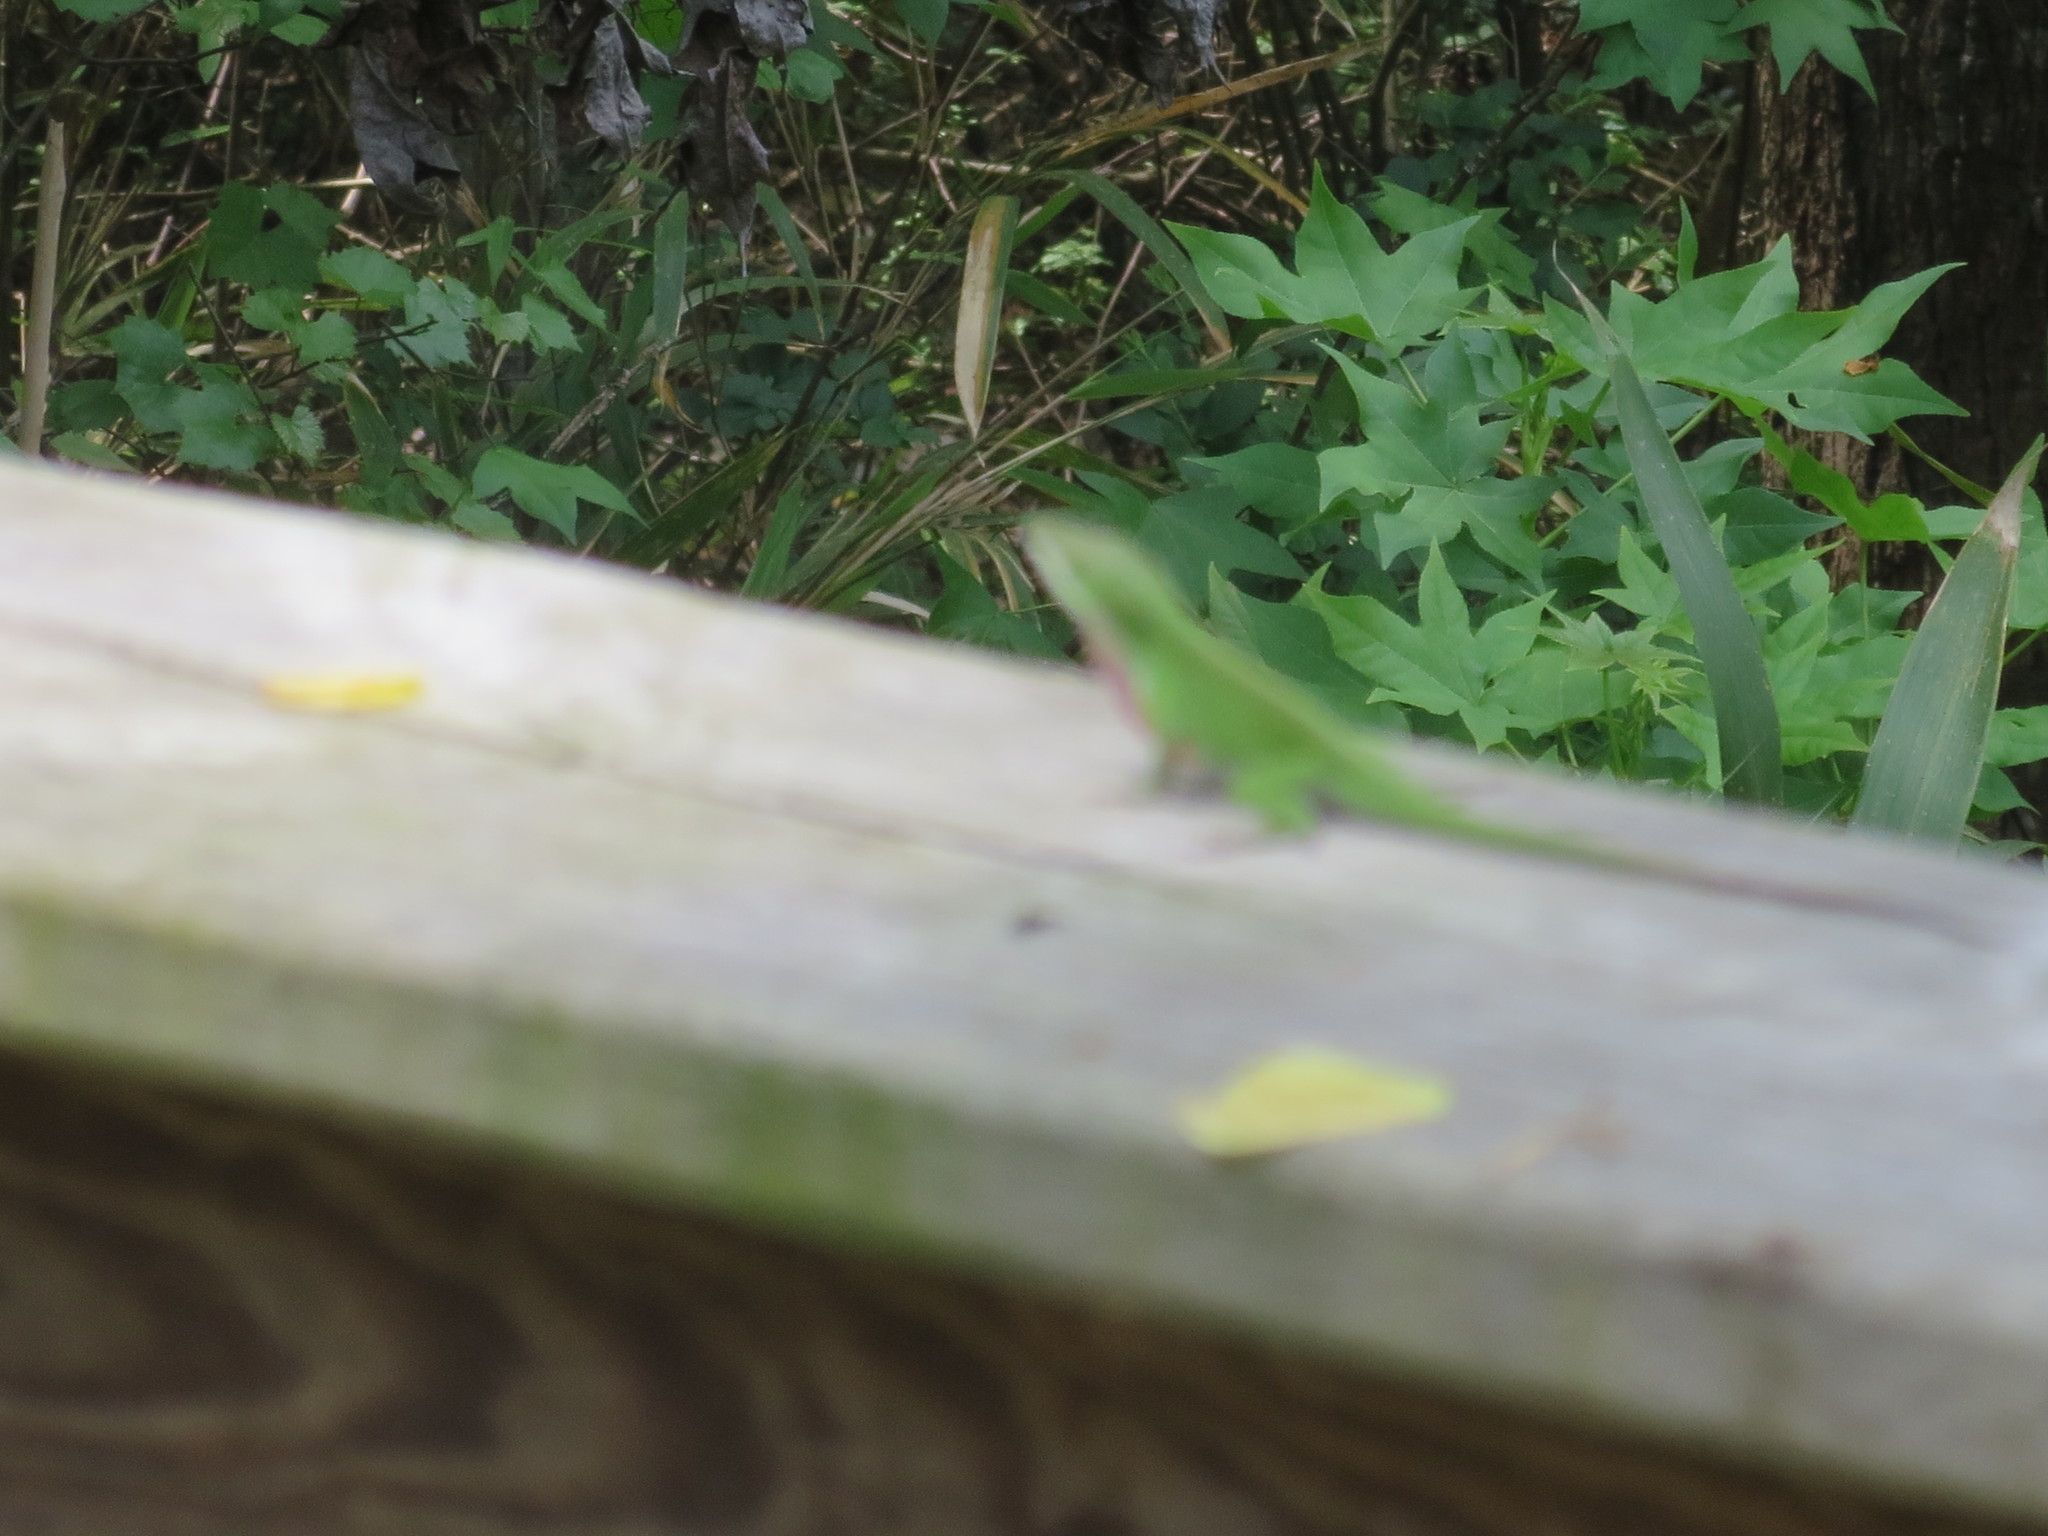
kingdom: Animalia
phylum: Chordata
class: Squamata
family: Dactyloidae
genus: Anolis
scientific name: Anolis carolinensis
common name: Green anole
